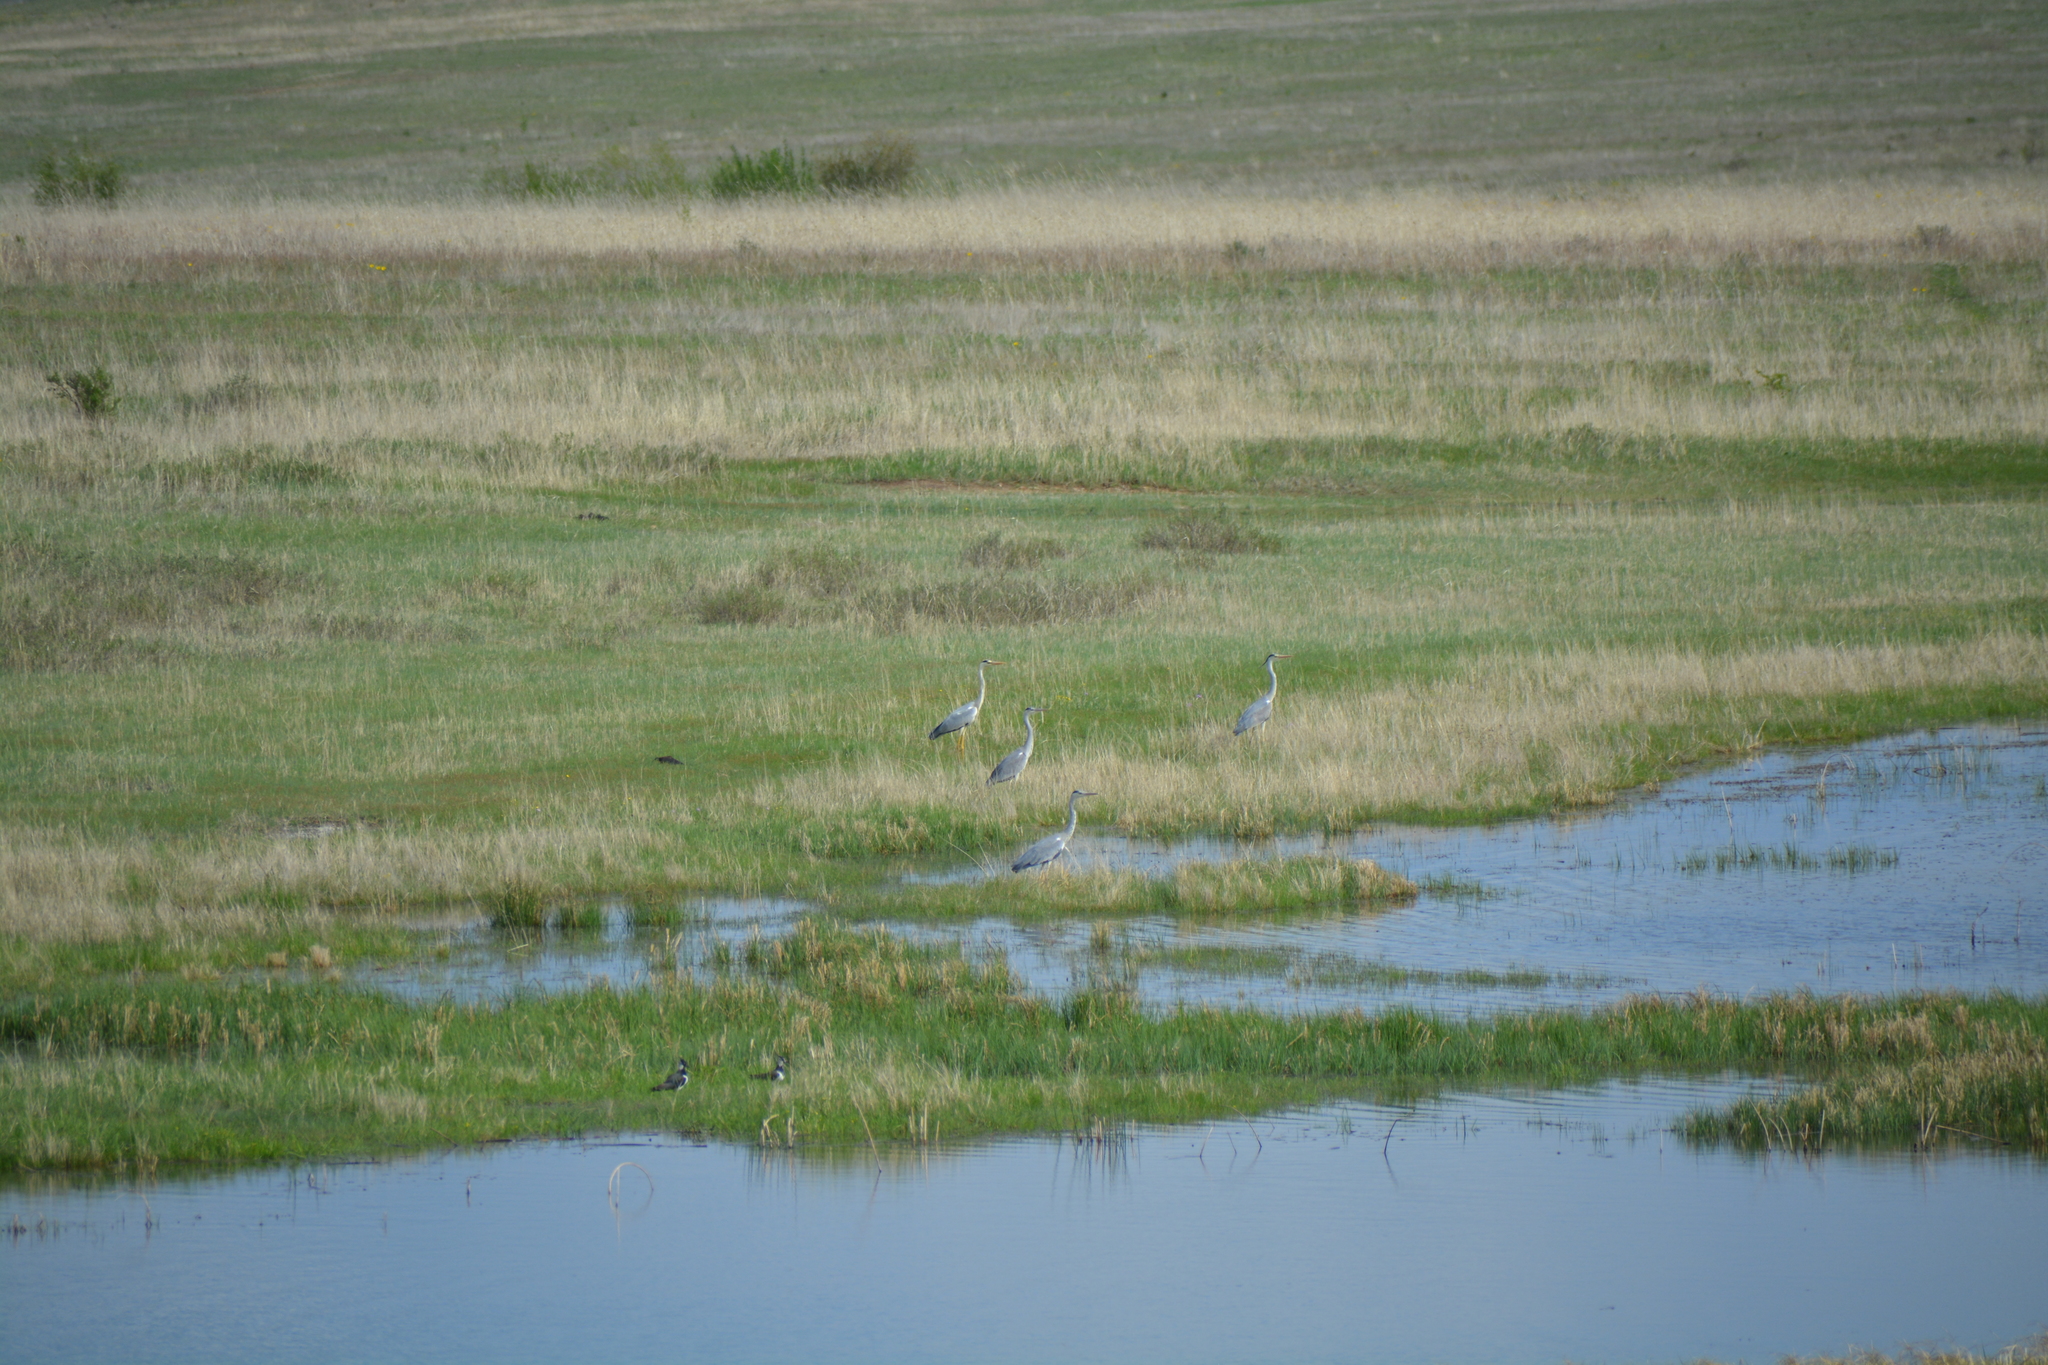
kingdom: Animalia
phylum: Chordata
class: Aves
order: Pelecaniformes
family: Ardeidae
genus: Ardea
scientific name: Ardea cinerea
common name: Grey heron
